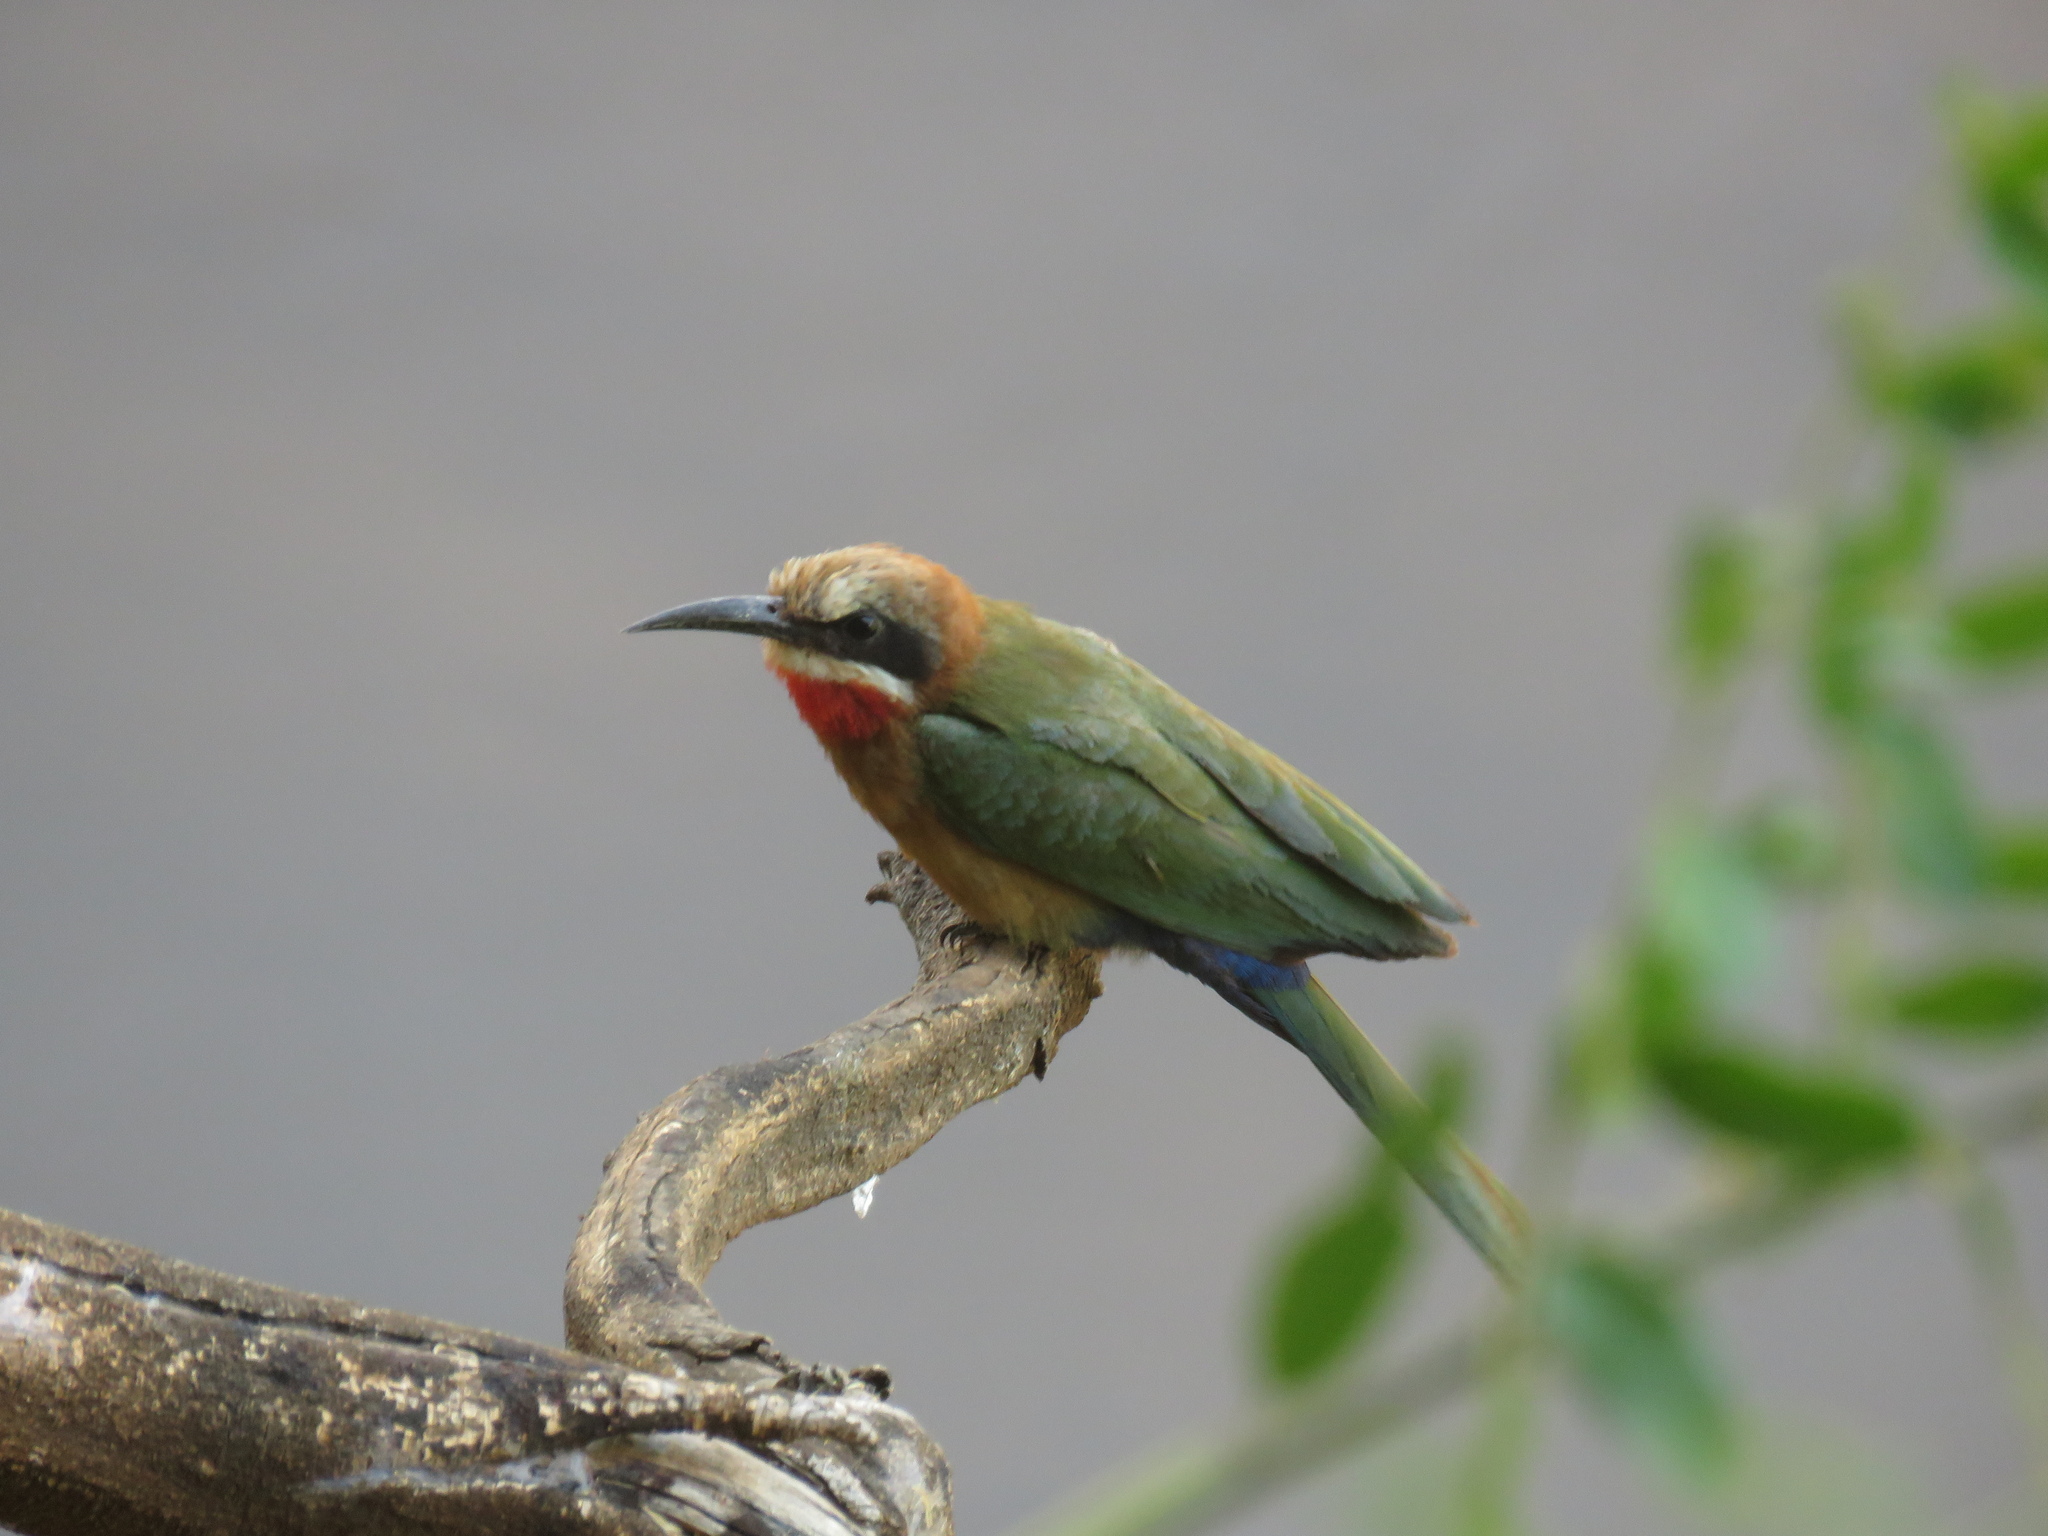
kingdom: Animalia
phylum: Chordata
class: Aves
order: Coraciiformes
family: Meropidae
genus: Merops
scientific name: Merops bullockoides
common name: White-fronted bee-eater
